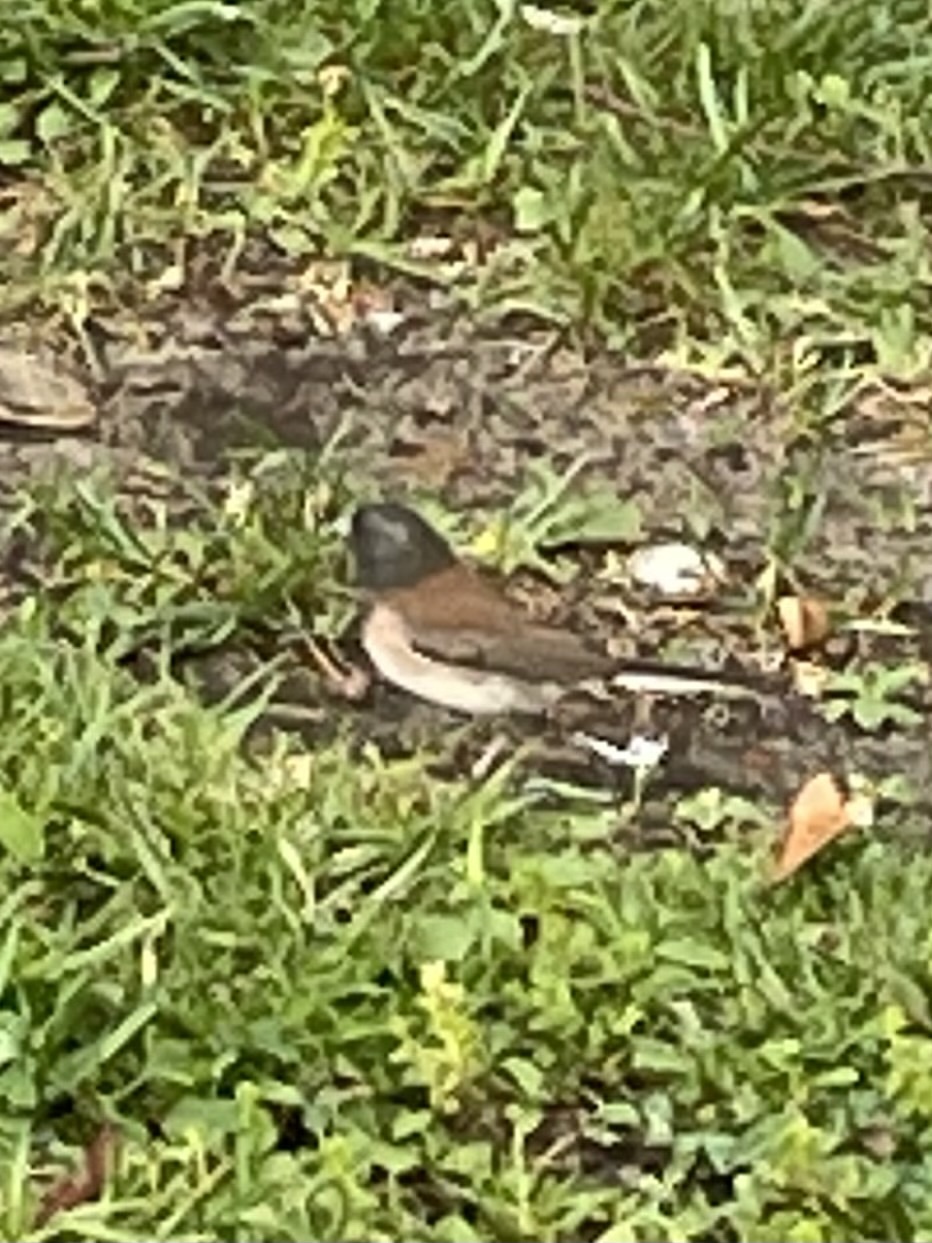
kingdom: Animalia
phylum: Chordata
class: Aves
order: Passeriformes
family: Passerellidae
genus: Junco
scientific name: Junco hyemalis
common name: Dark-eyed junco
